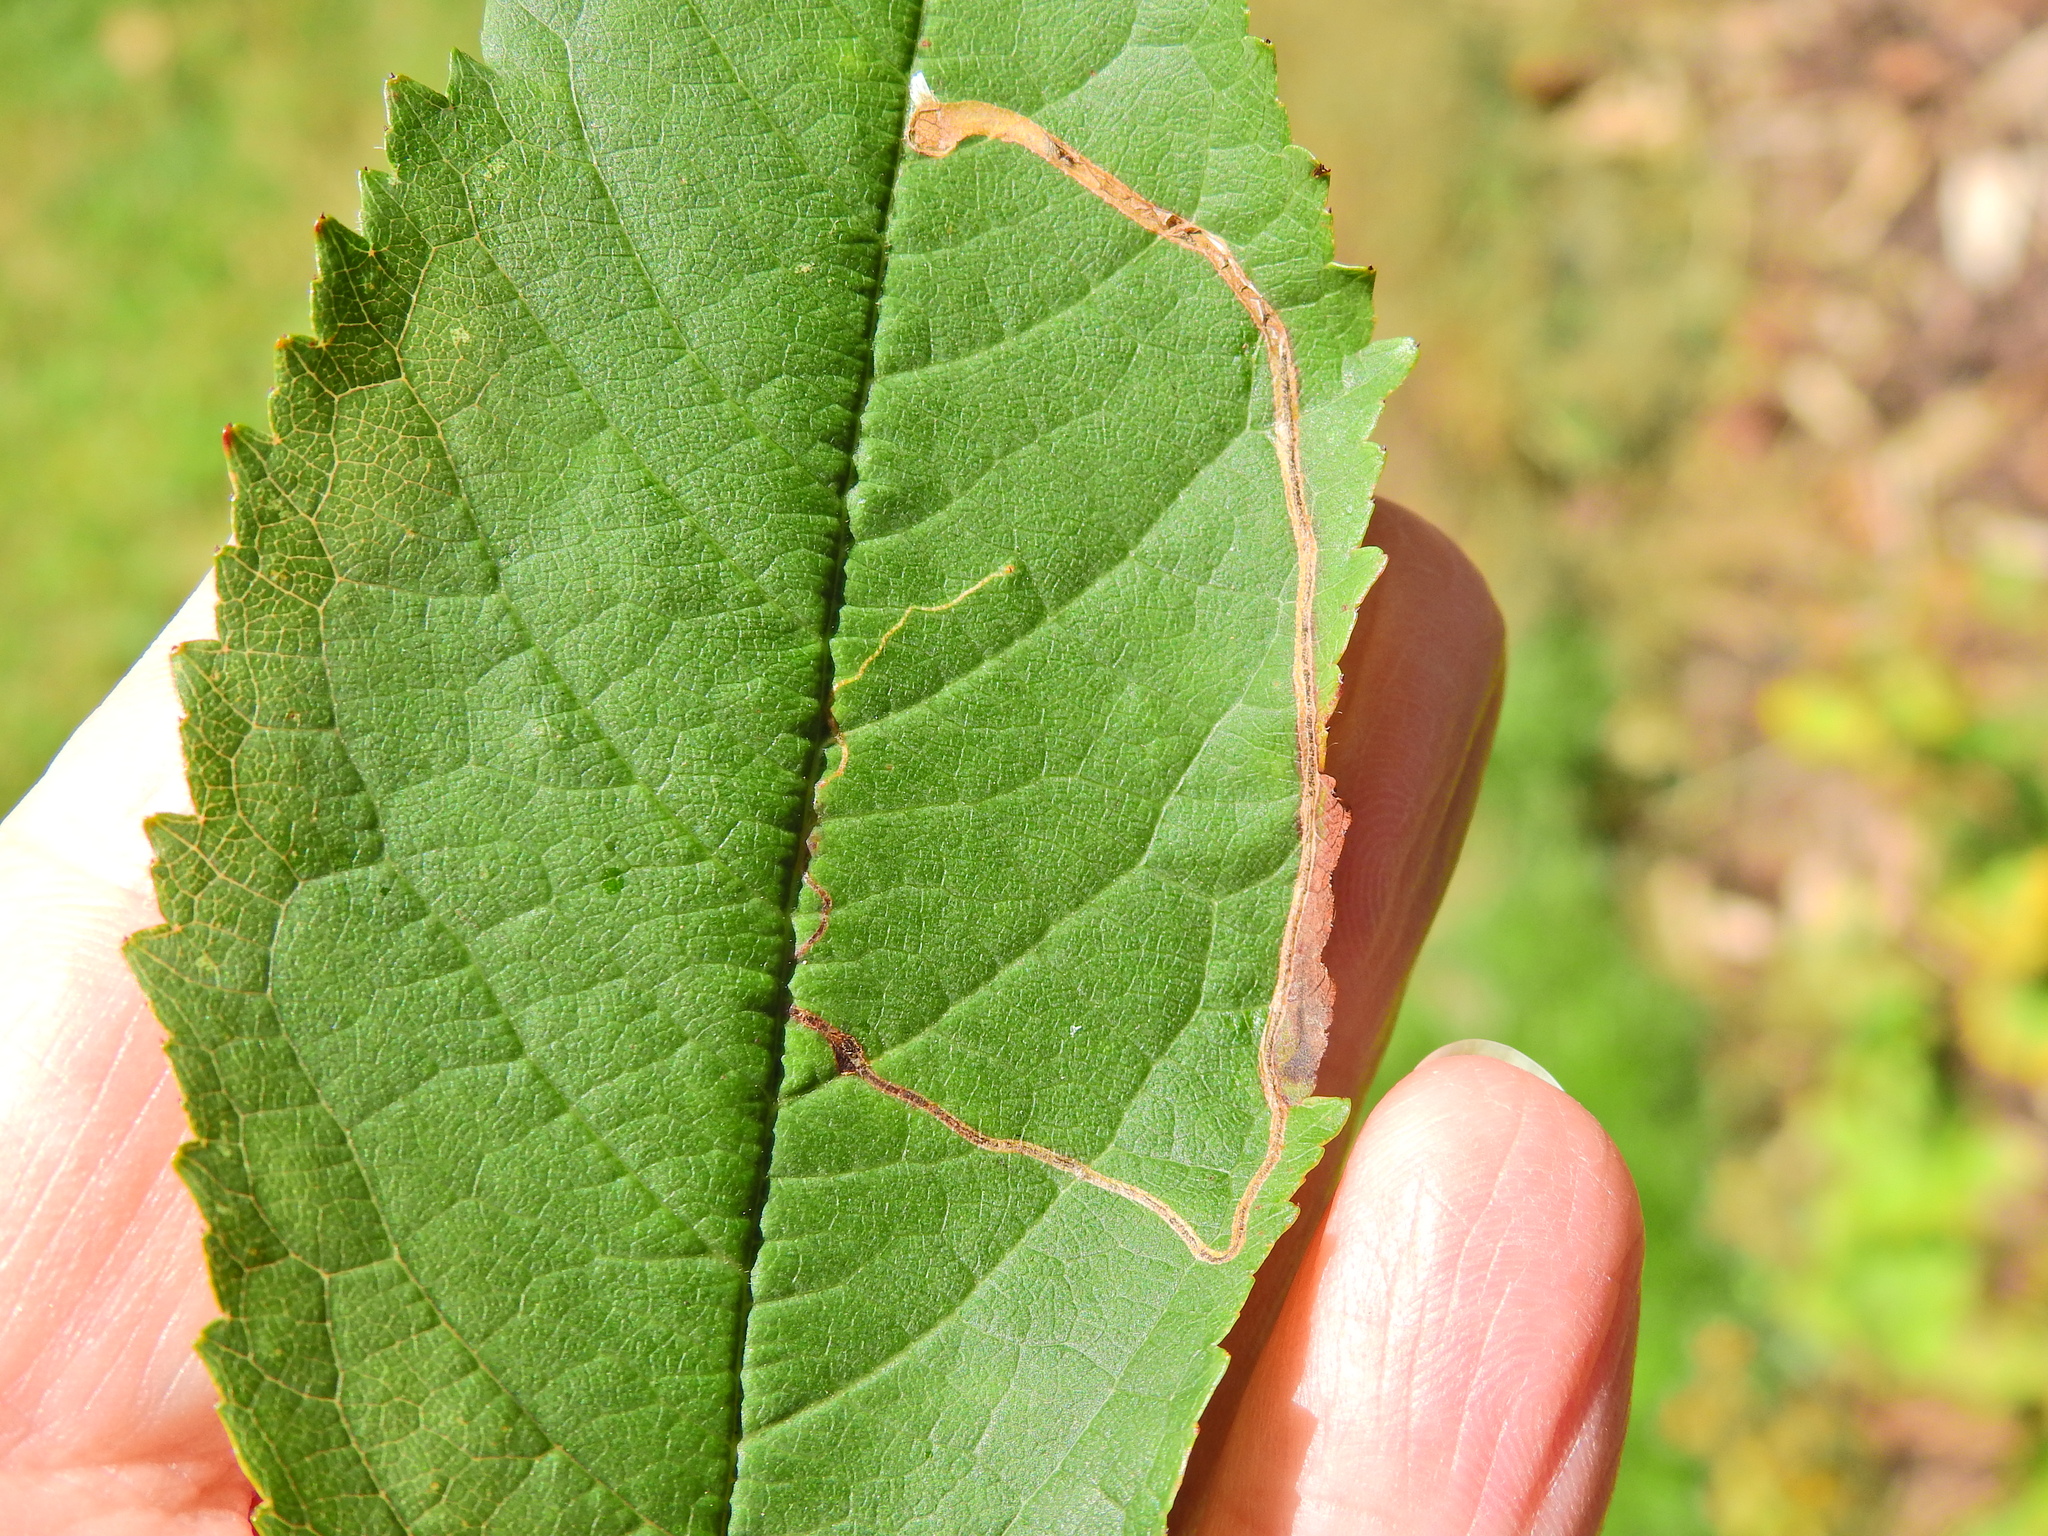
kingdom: Animalia
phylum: Arthropoda
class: Insecta
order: Lepidoptera
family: Lyonetiidae
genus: Lyonetia
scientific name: Lyonetia clerkella
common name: Apple leaf miner
